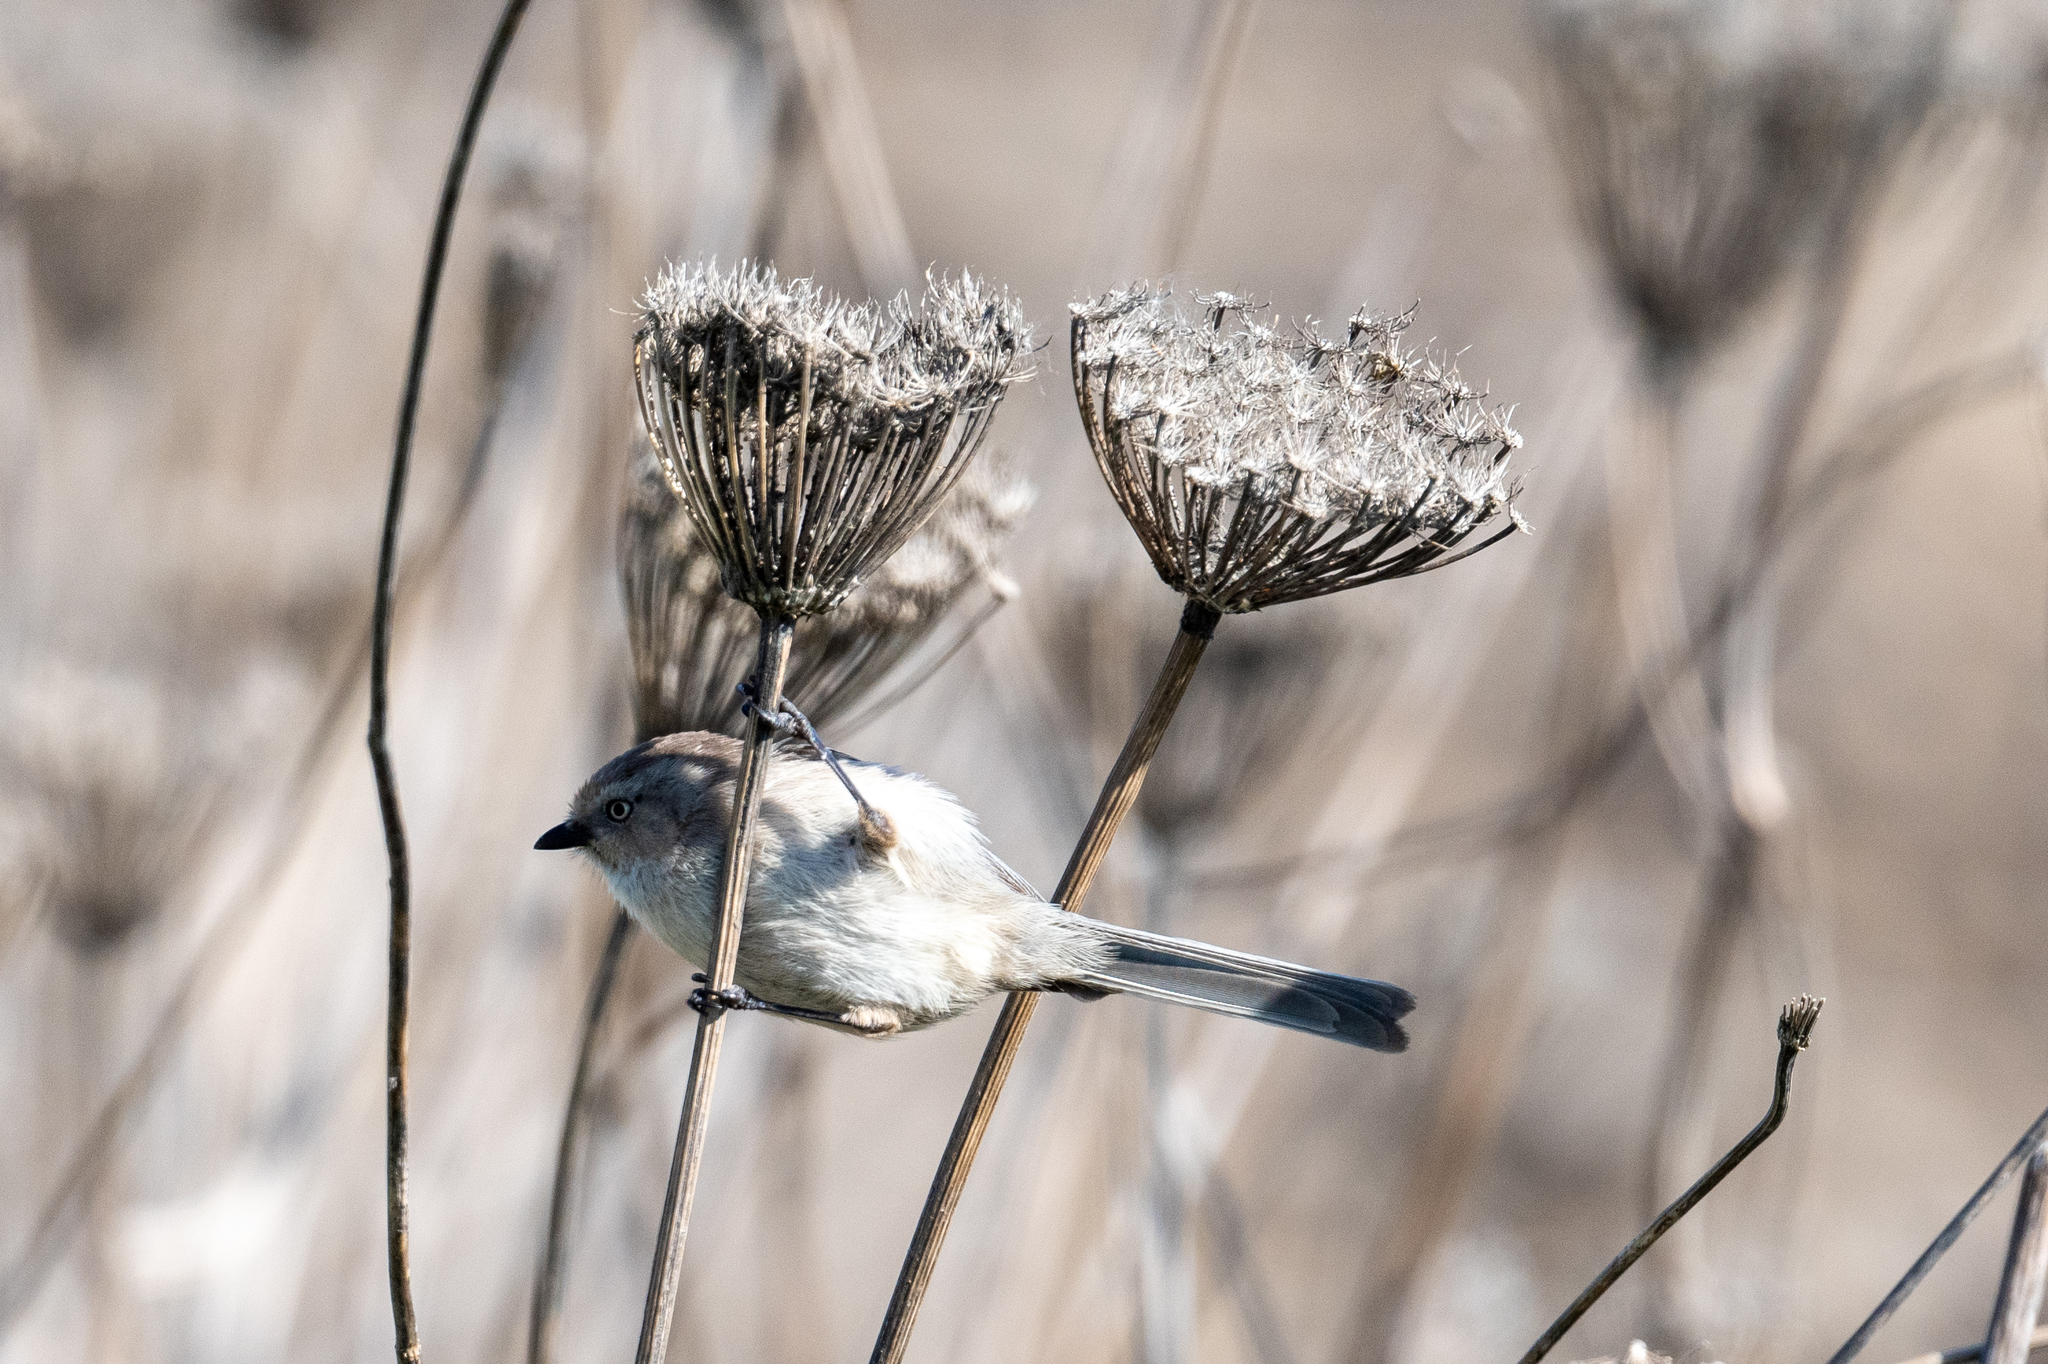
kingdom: Animalia
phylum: Chordata
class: Aves
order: Passeriformes
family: Aegithalidae
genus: Psaltriparus
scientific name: Psaltriparus minimus
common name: American bushtit
